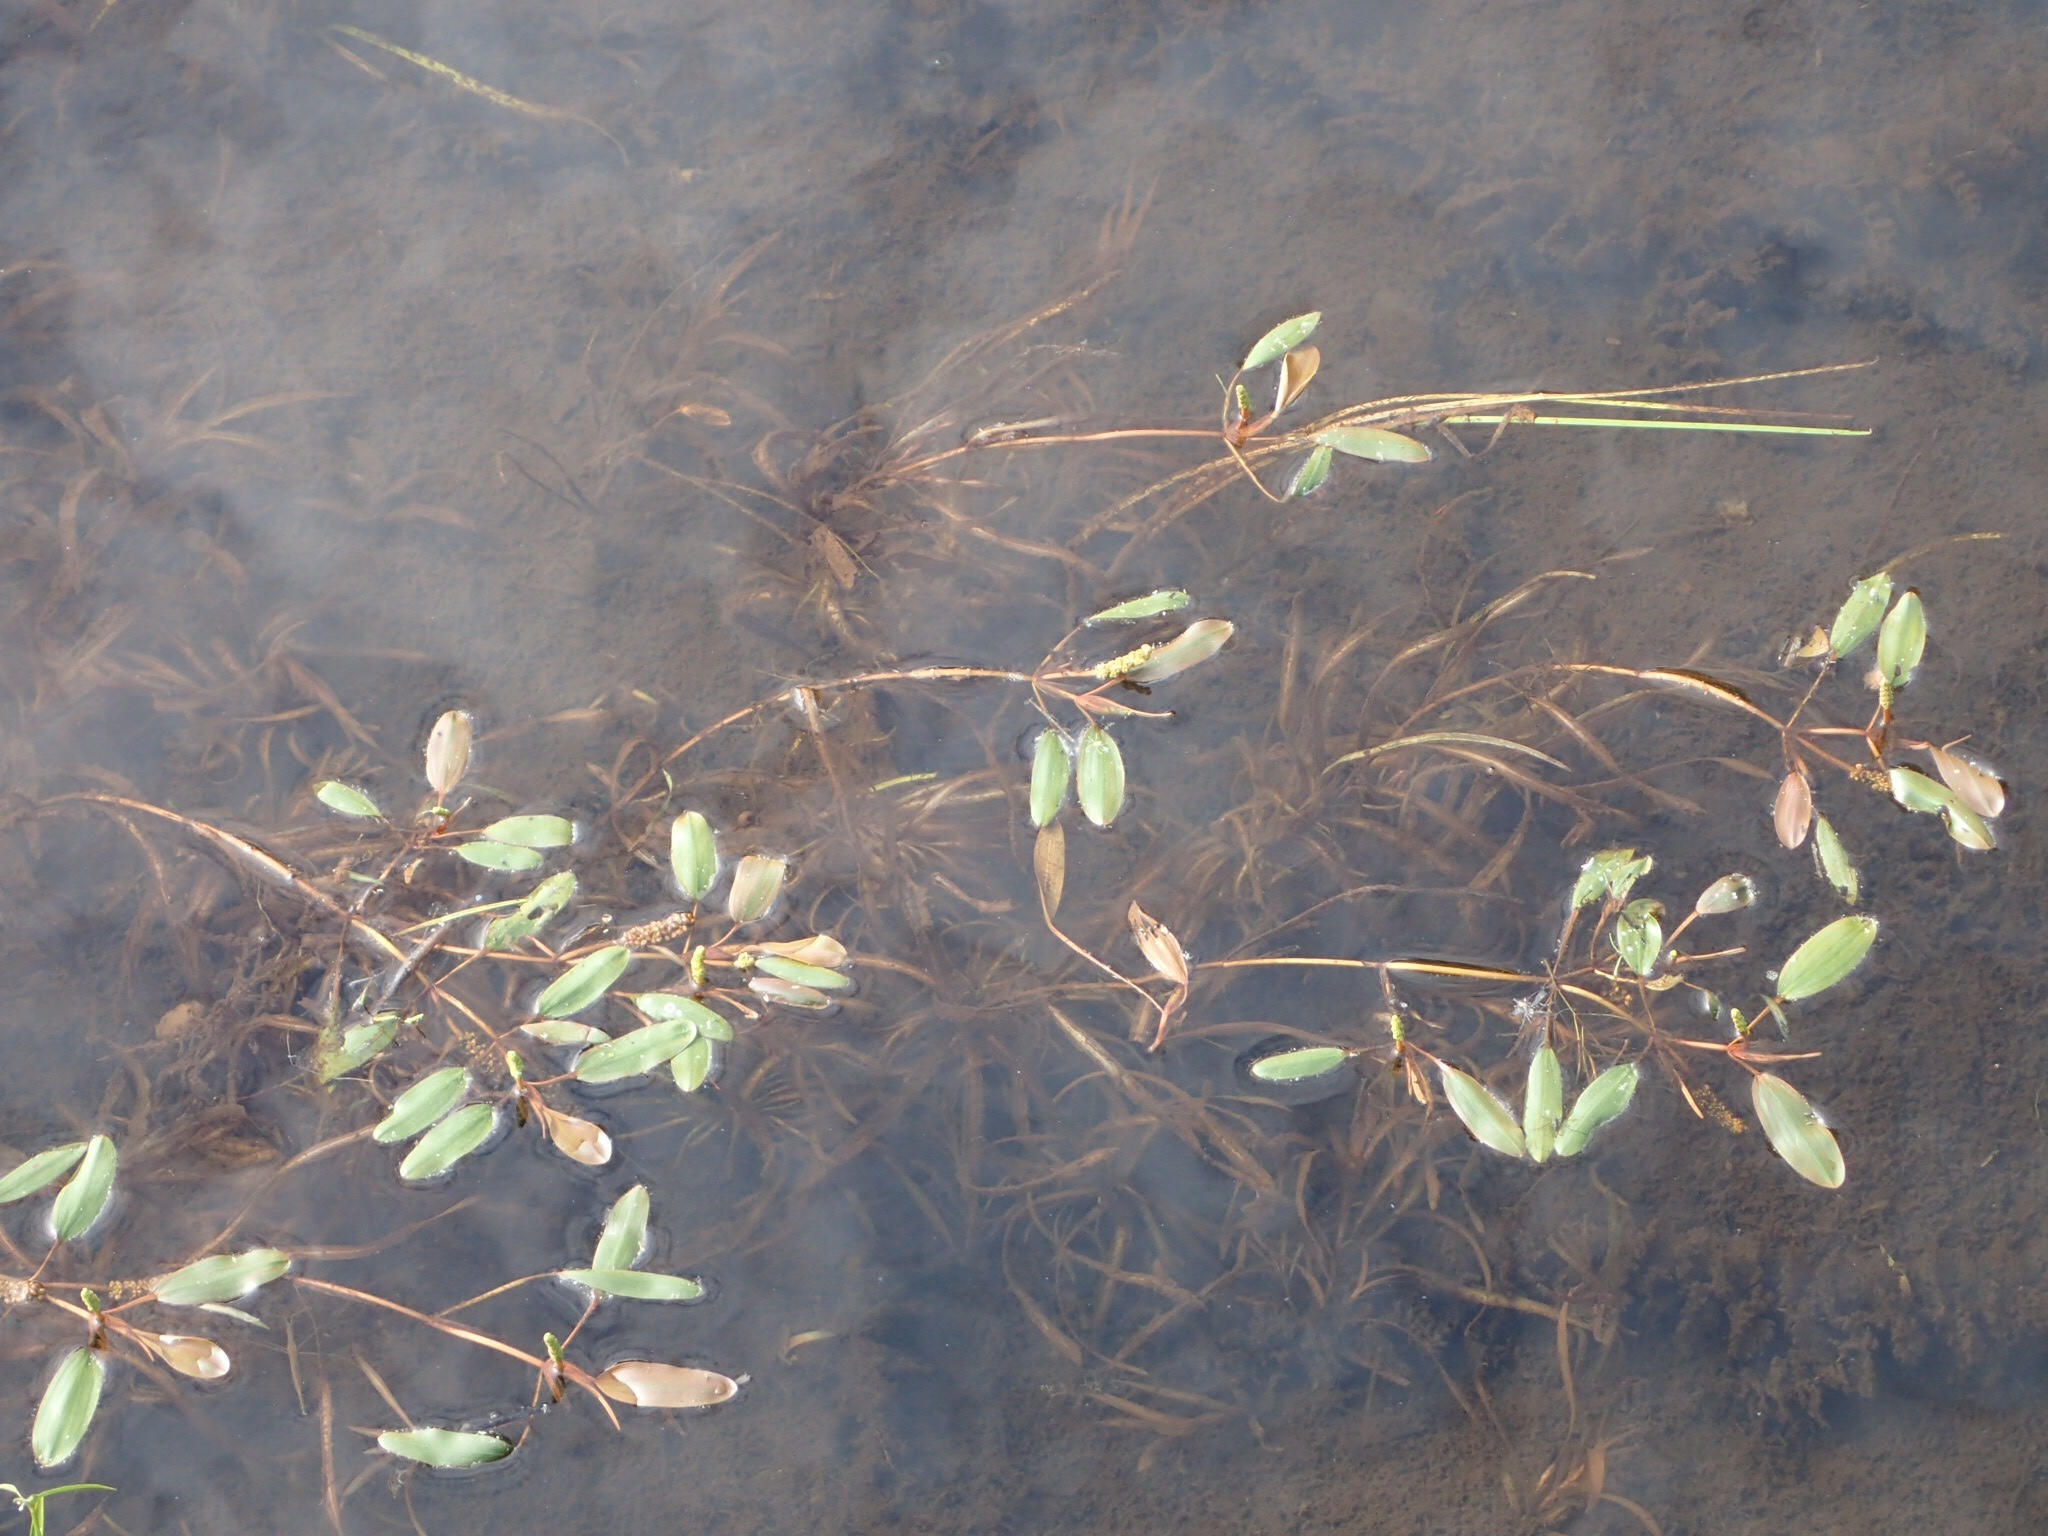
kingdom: Plantae
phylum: Tracheophyta
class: Liliopsida
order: Alismatales
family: Potamogetonaceae
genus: Potamogeton
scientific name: Potamogeton epihydrus
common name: American pondweed
